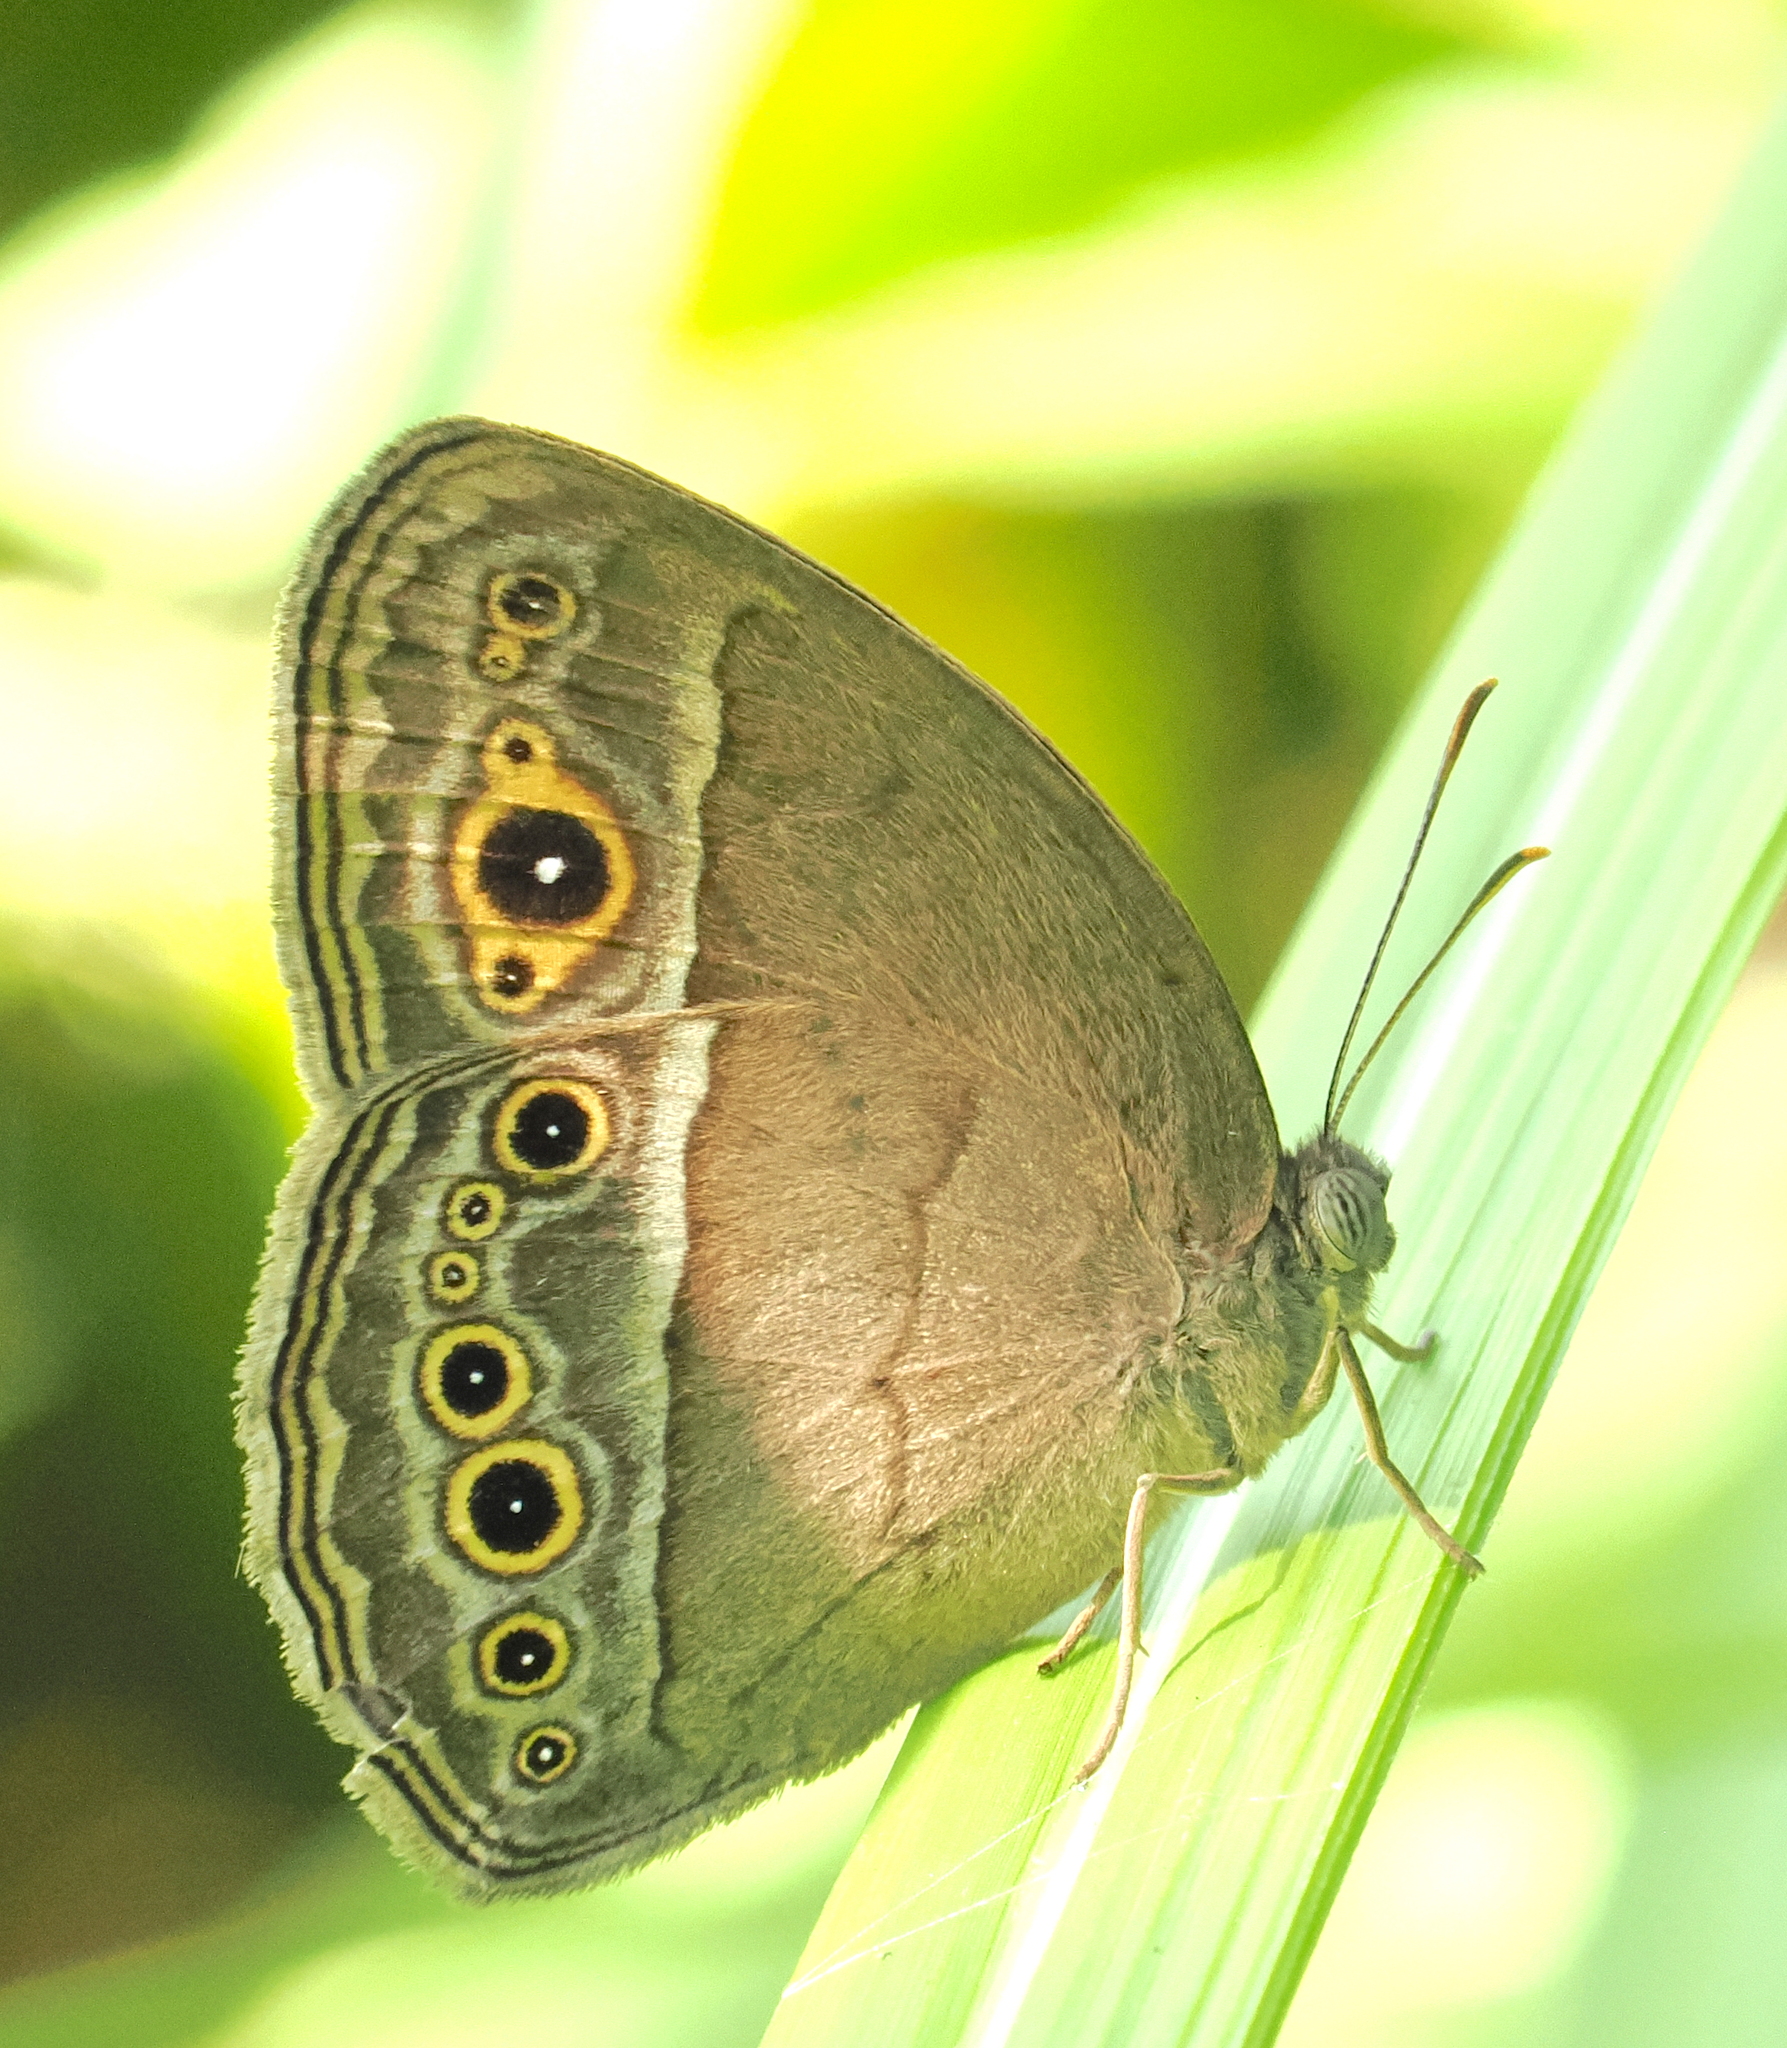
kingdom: Animalia
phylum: Arthropoda
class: Insecta
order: Lepidoptera
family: Nymphalidae
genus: Mycalesis
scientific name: Mycalesis perseoides
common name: Burmese bushbrown
